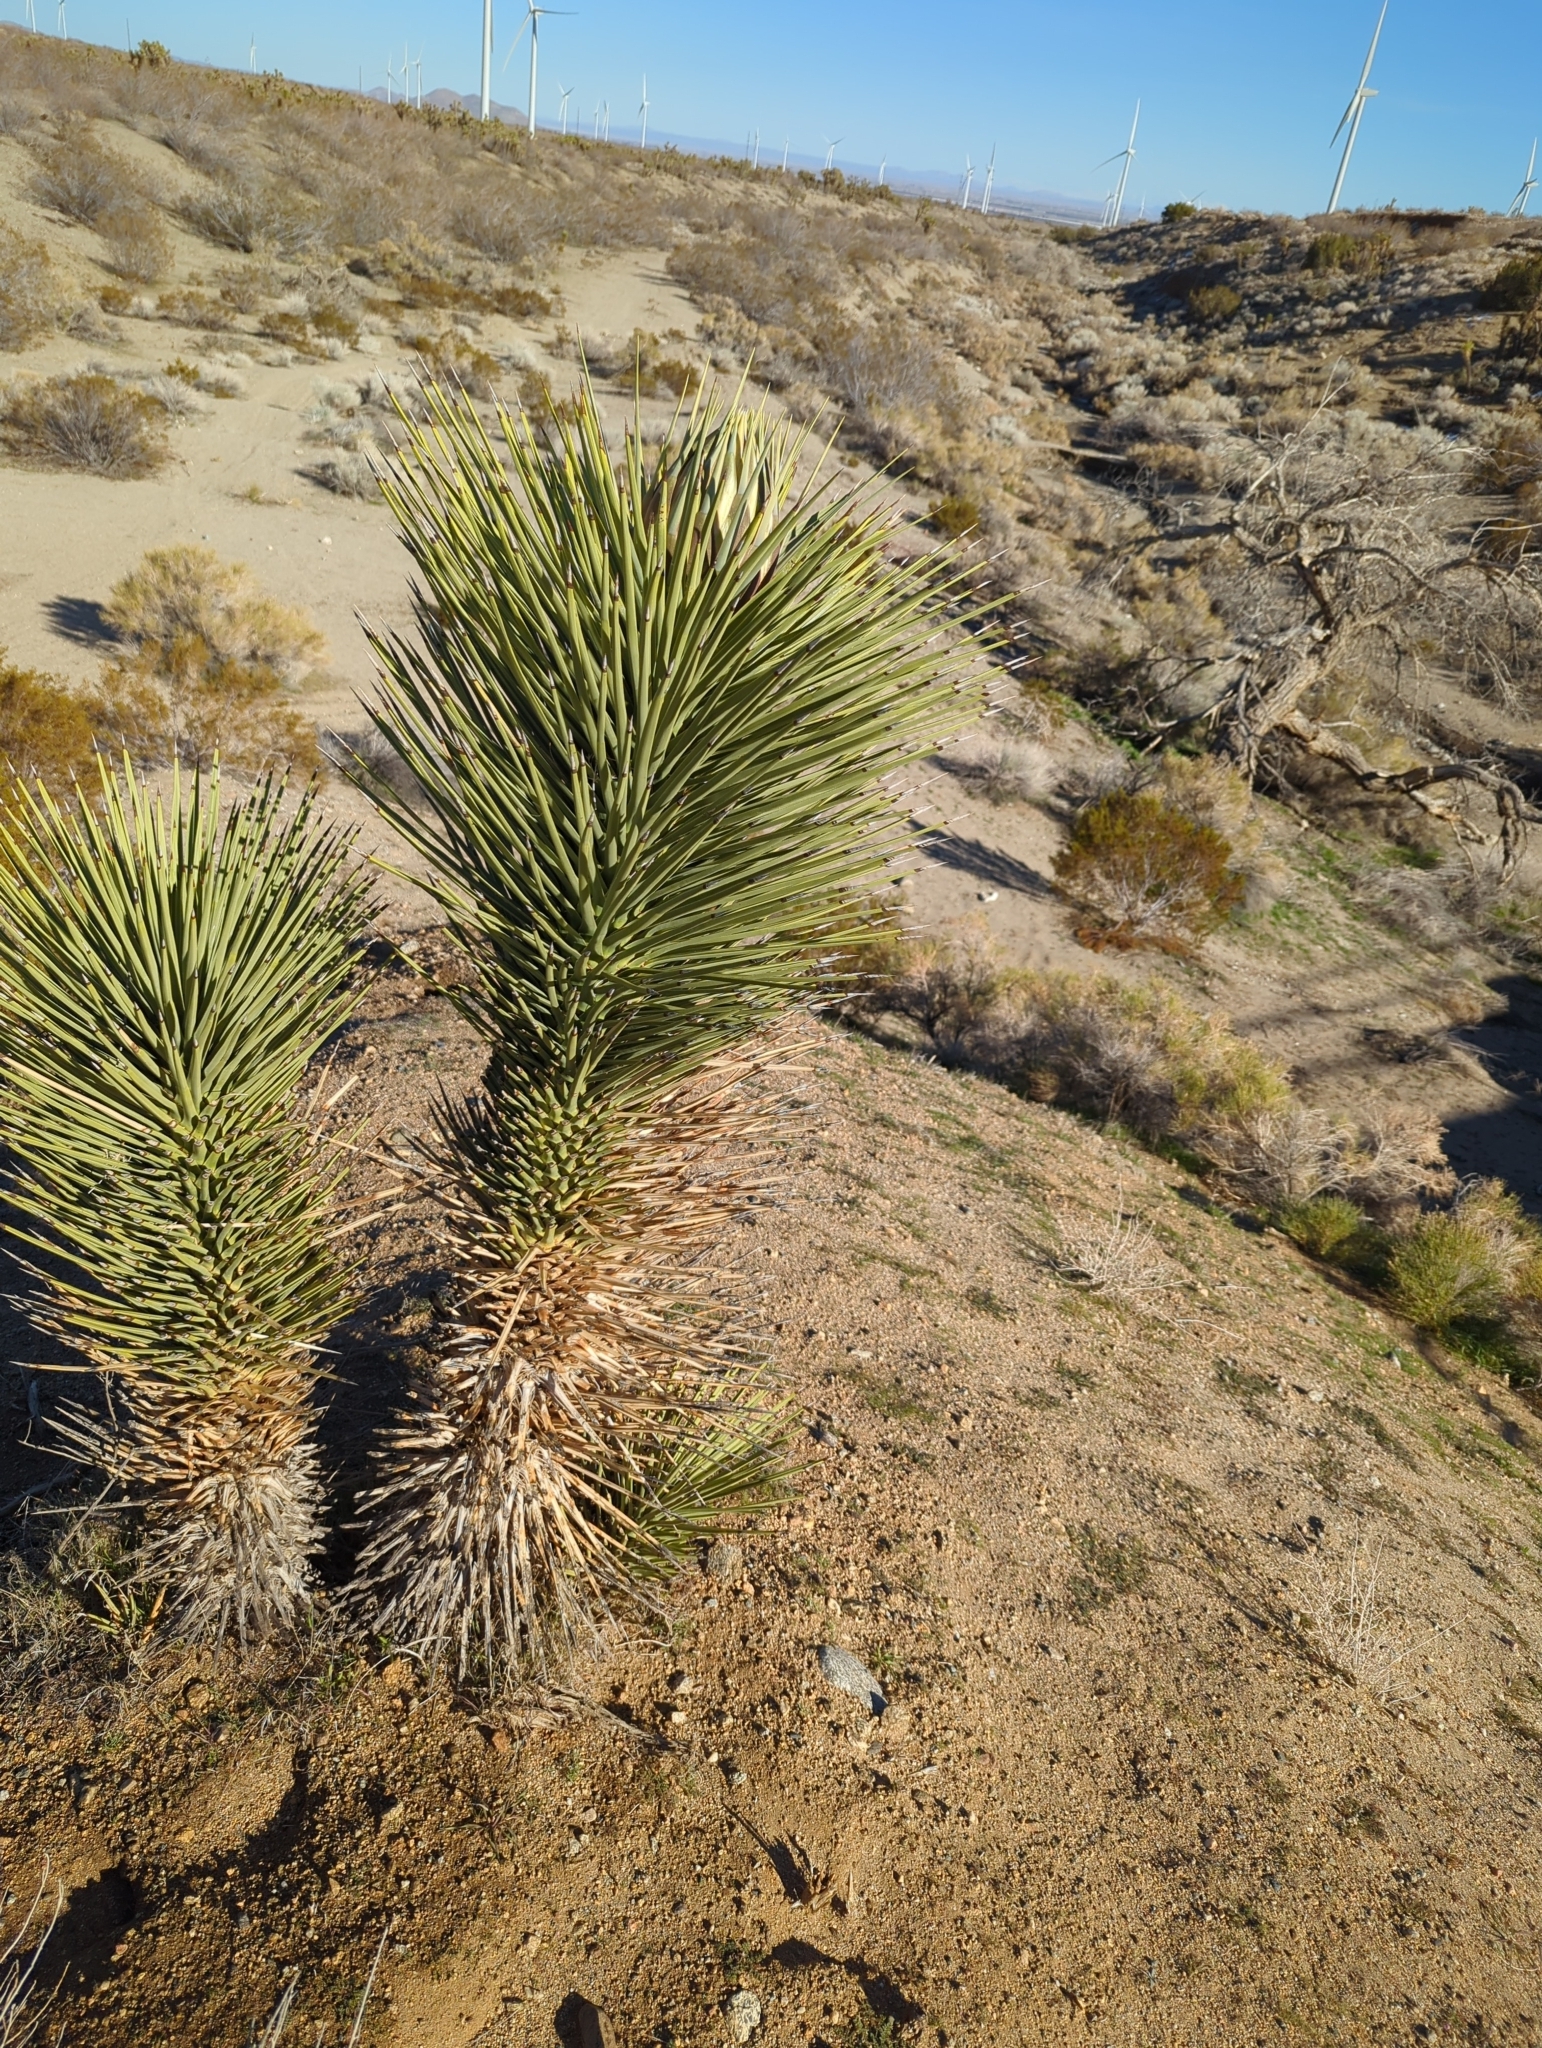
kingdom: Plantae
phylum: Tracheophyta
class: Liliopsida
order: Asparagales
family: Asparagaceae
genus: Yucca
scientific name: Yucca brevifolia
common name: Joshua tree
